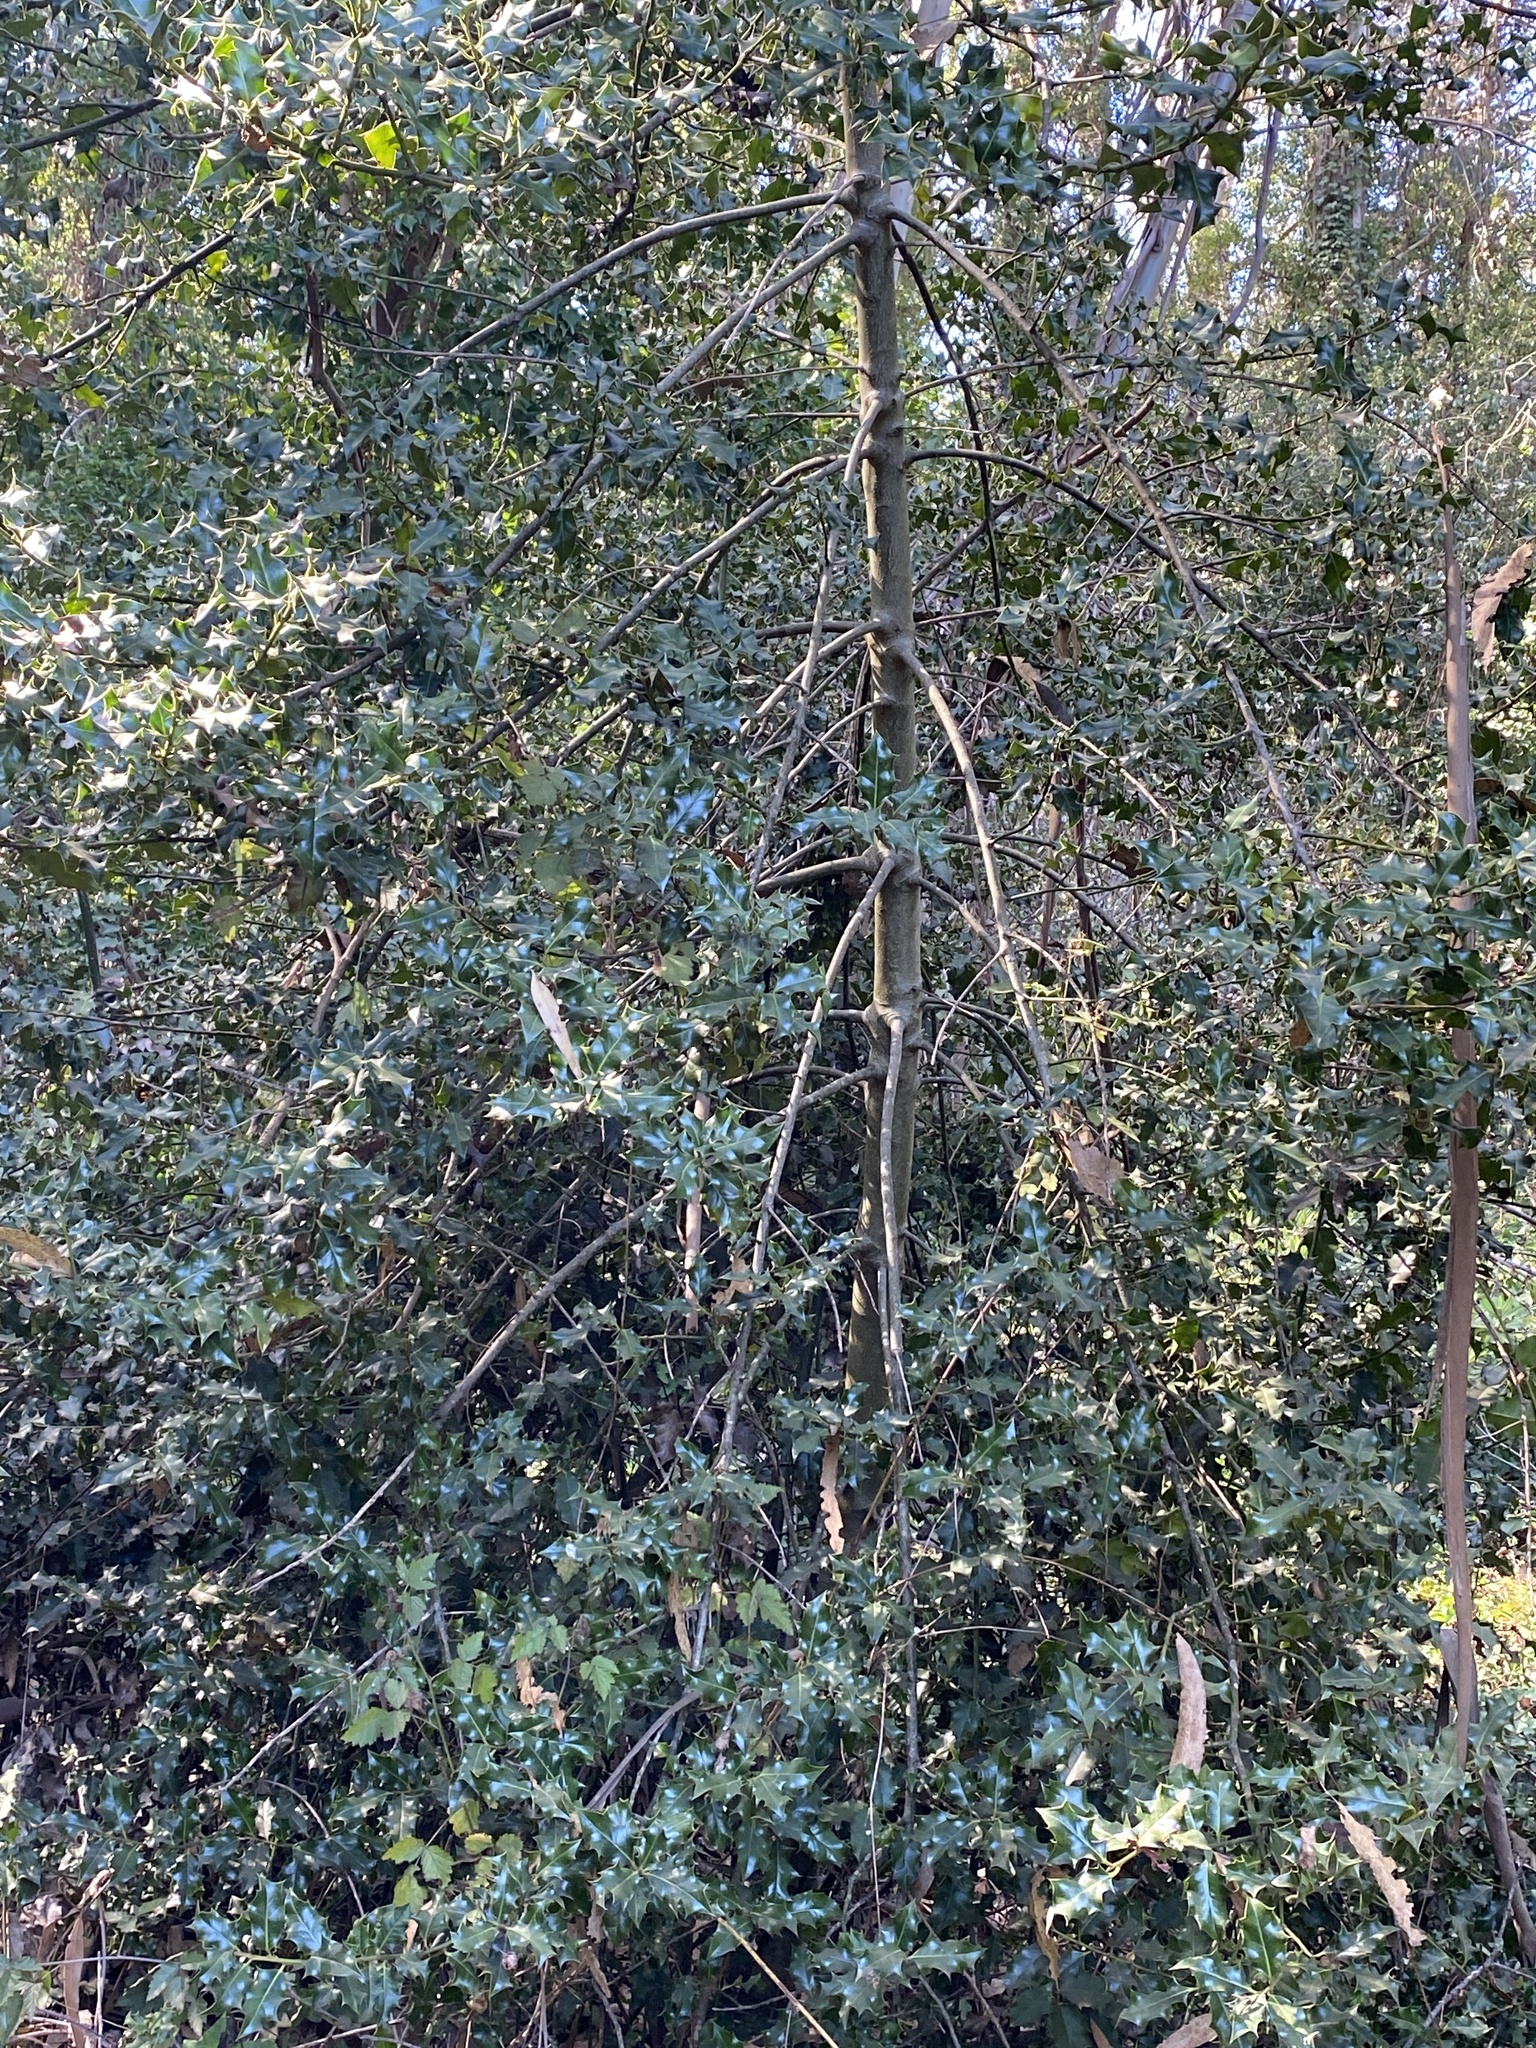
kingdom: Plantae
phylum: Tracheophyta
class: Magnoliopsida
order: Aquifoliales
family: Aquifoliaceae
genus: Ilex
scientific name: Ilex aquifolium
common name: English holly
